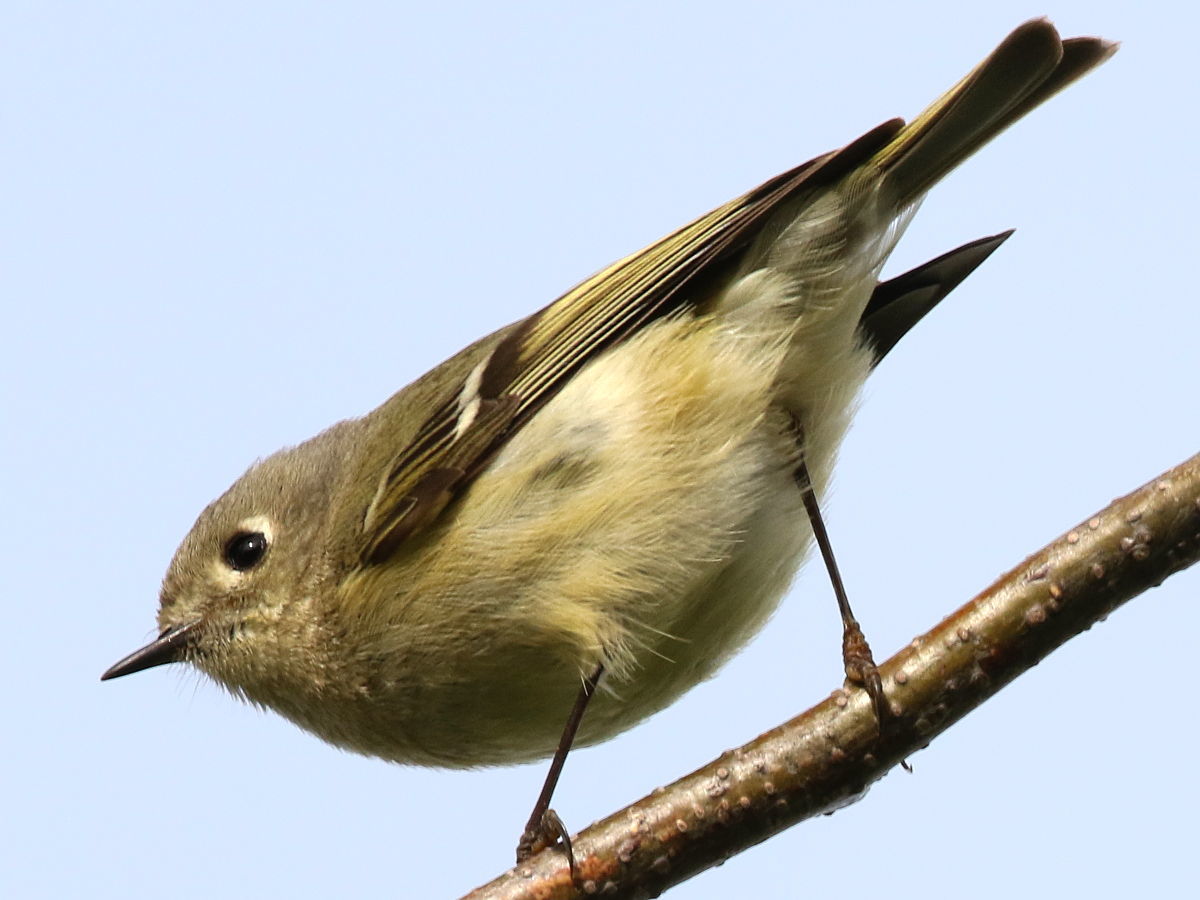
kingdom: Animalia
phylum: Chordata
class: Aves
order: Passeriformes
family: Regulidae
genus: Regulus
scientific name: Regulus calendula
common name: Ruby-crowned kinglet
